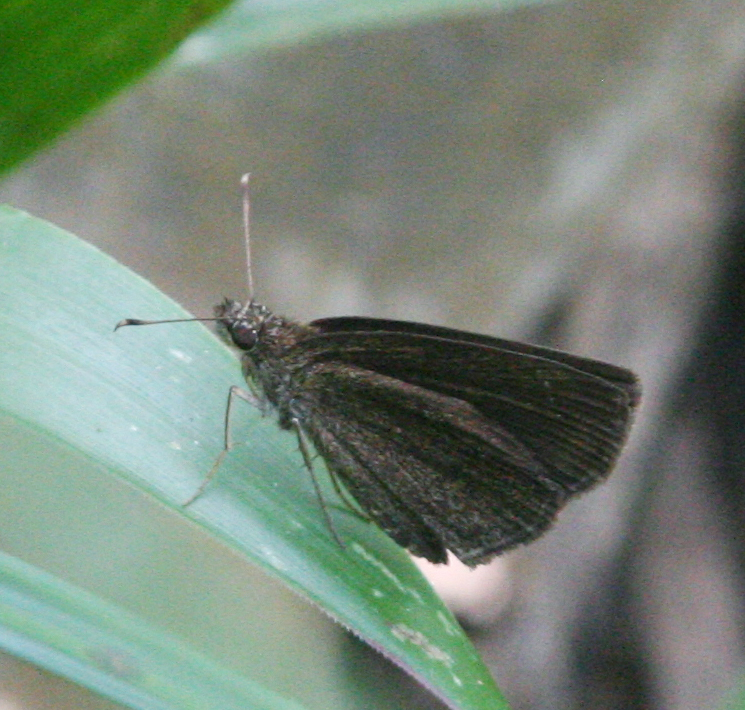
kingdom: Animalia
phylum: Arthropoda
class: Insecta
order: Lepidoptera
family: Hesperiidae
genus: Astictopterus
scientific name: Astictopterus jama
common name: Forest hopper
